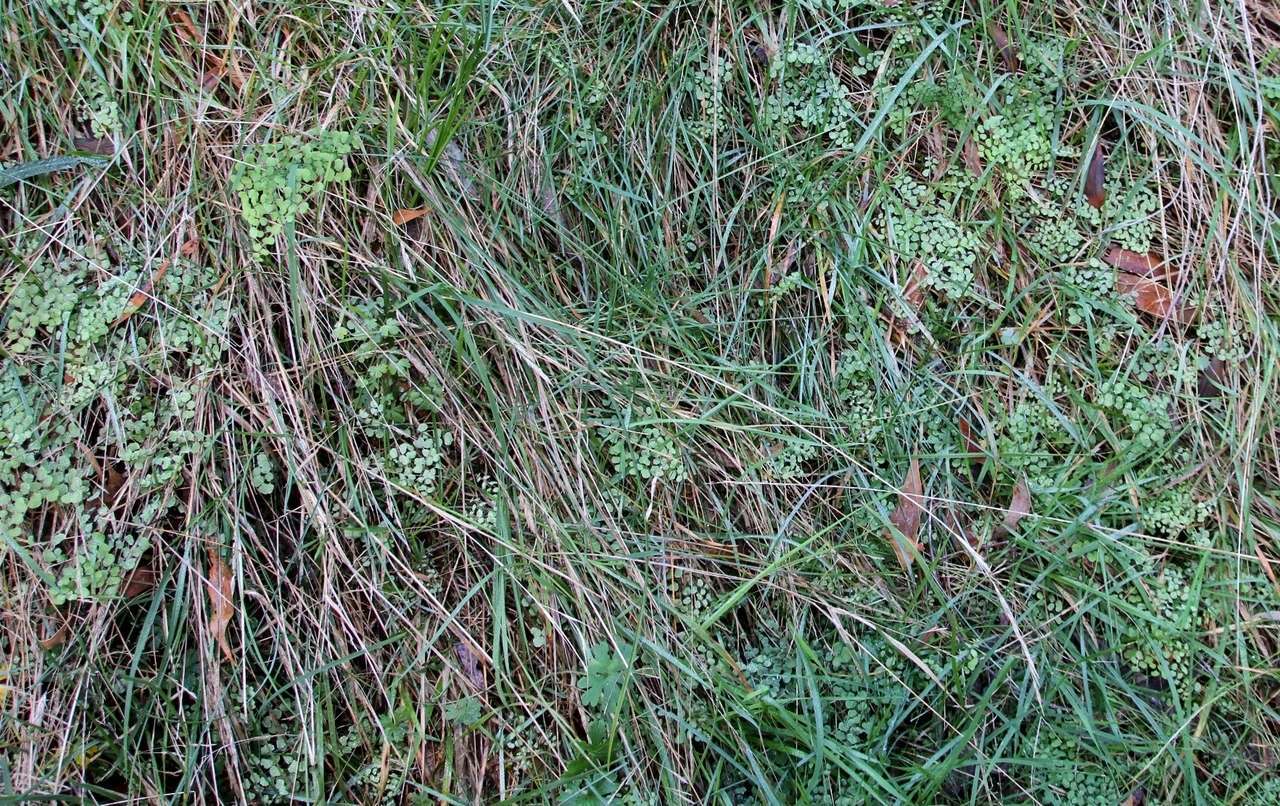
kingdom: Plantae
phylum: Tracheophyta
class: Polypodiopsida
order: Polypodiales
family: Pteridaceae
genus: Adiantum
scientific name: Adiantum aethiopicum
